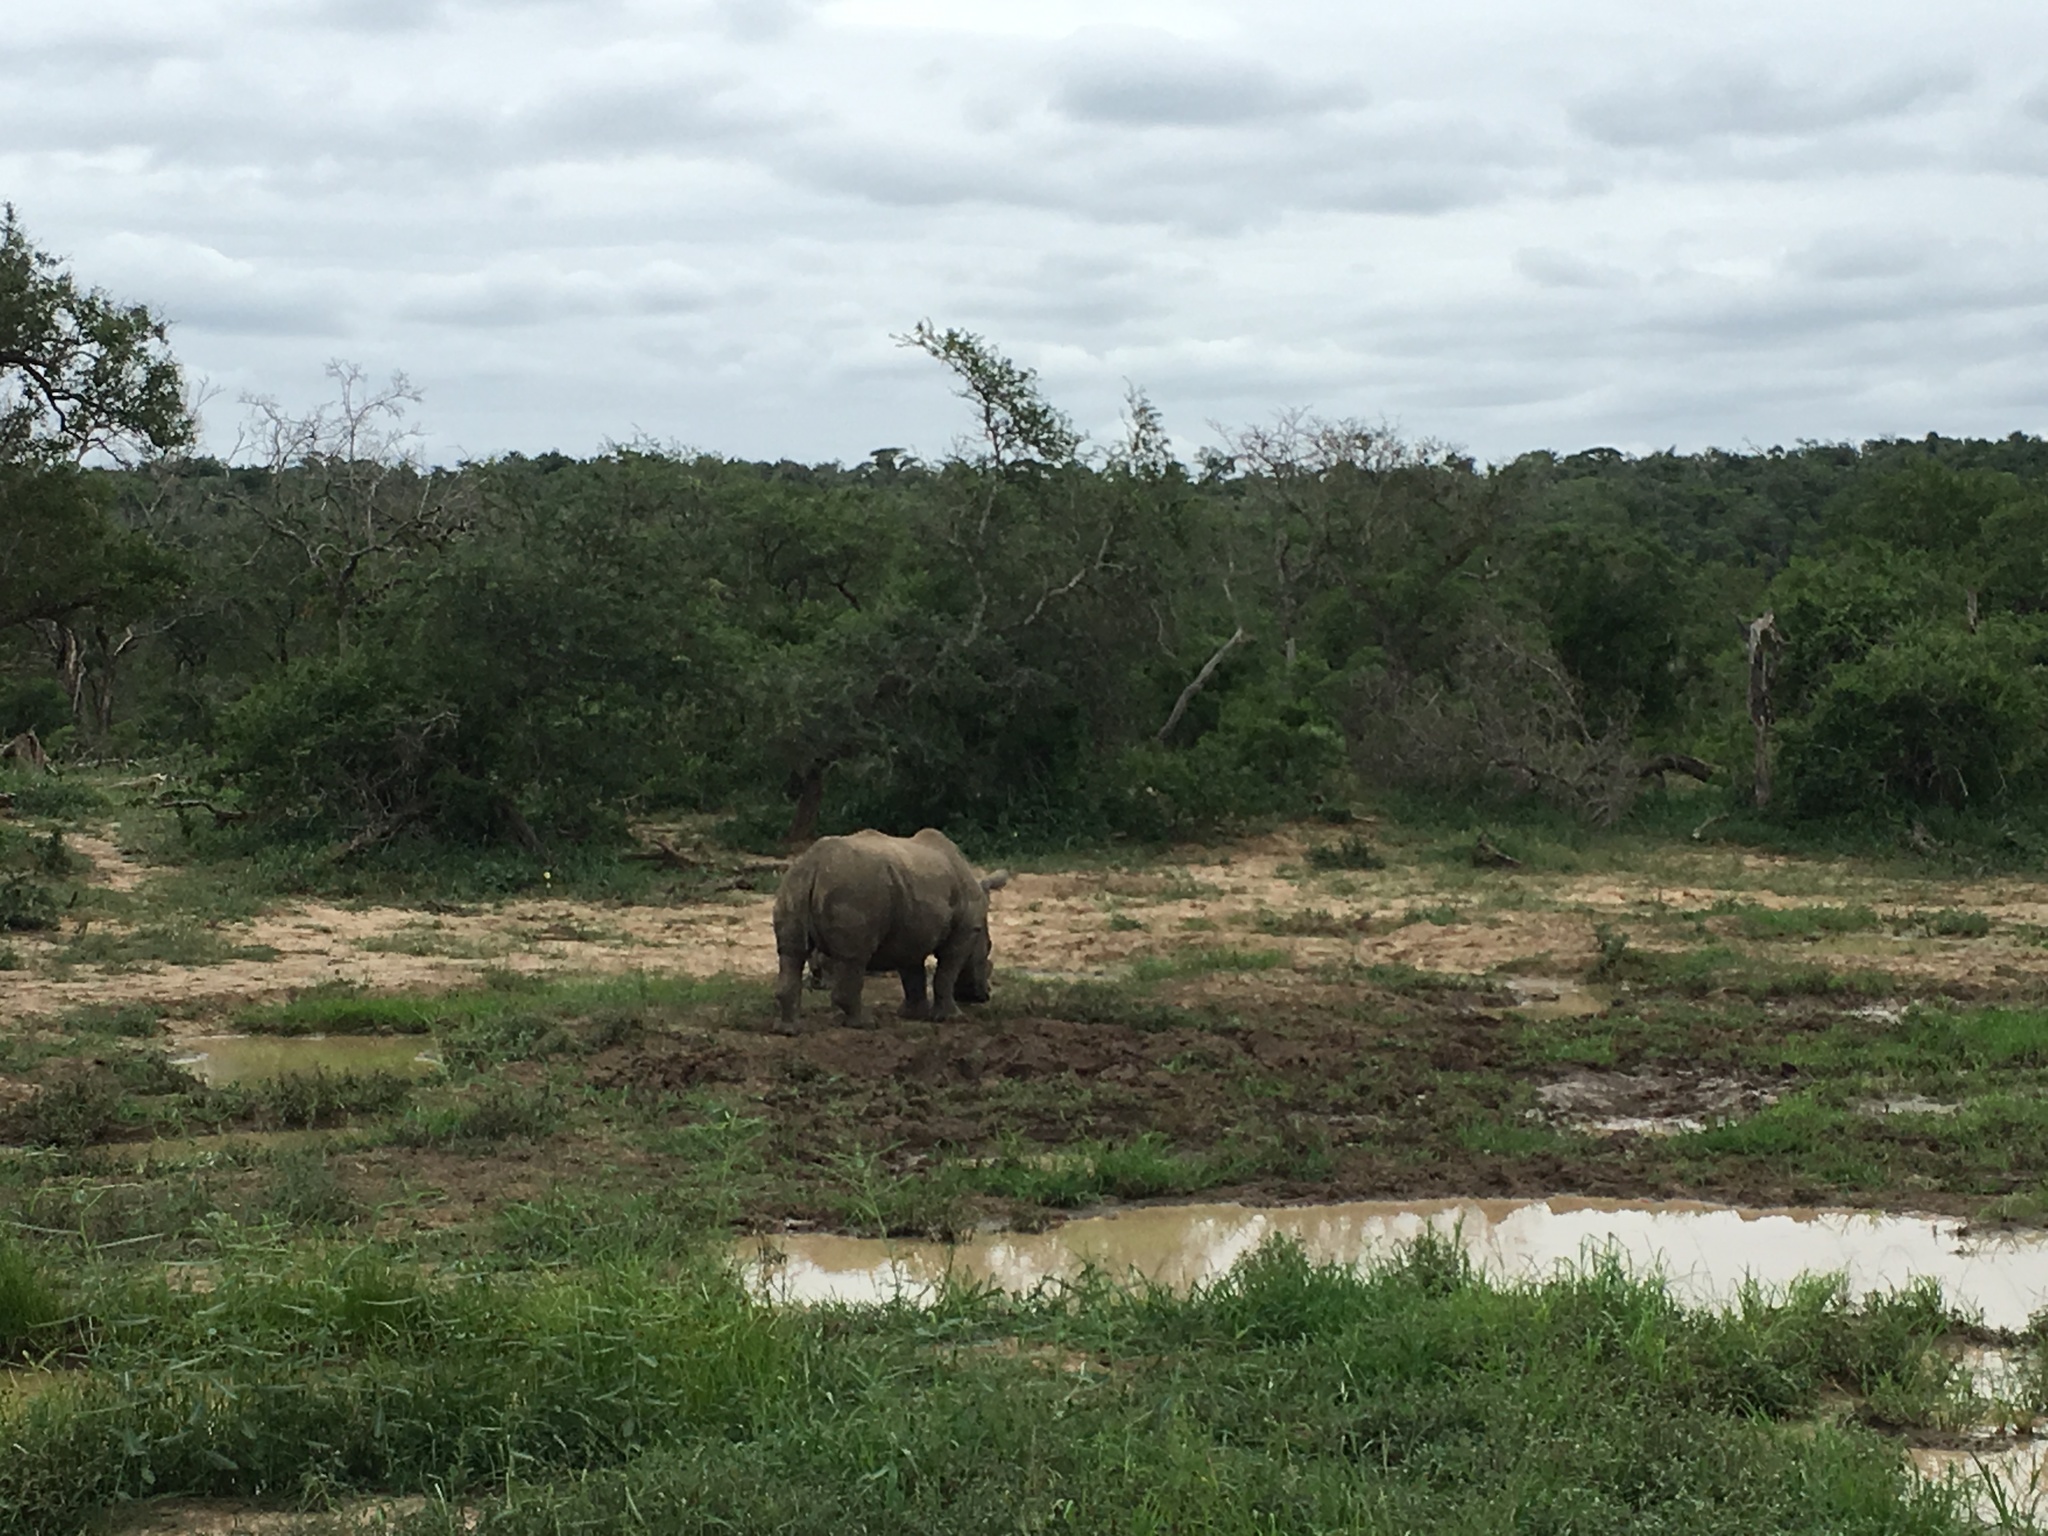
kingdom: Animalia
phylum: Chordata
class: Mammalia
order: Perissodactyla
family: Rhinocerotidae
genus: Ceratotherium
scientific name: Ceratotherium simum
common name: White rhinoceros
